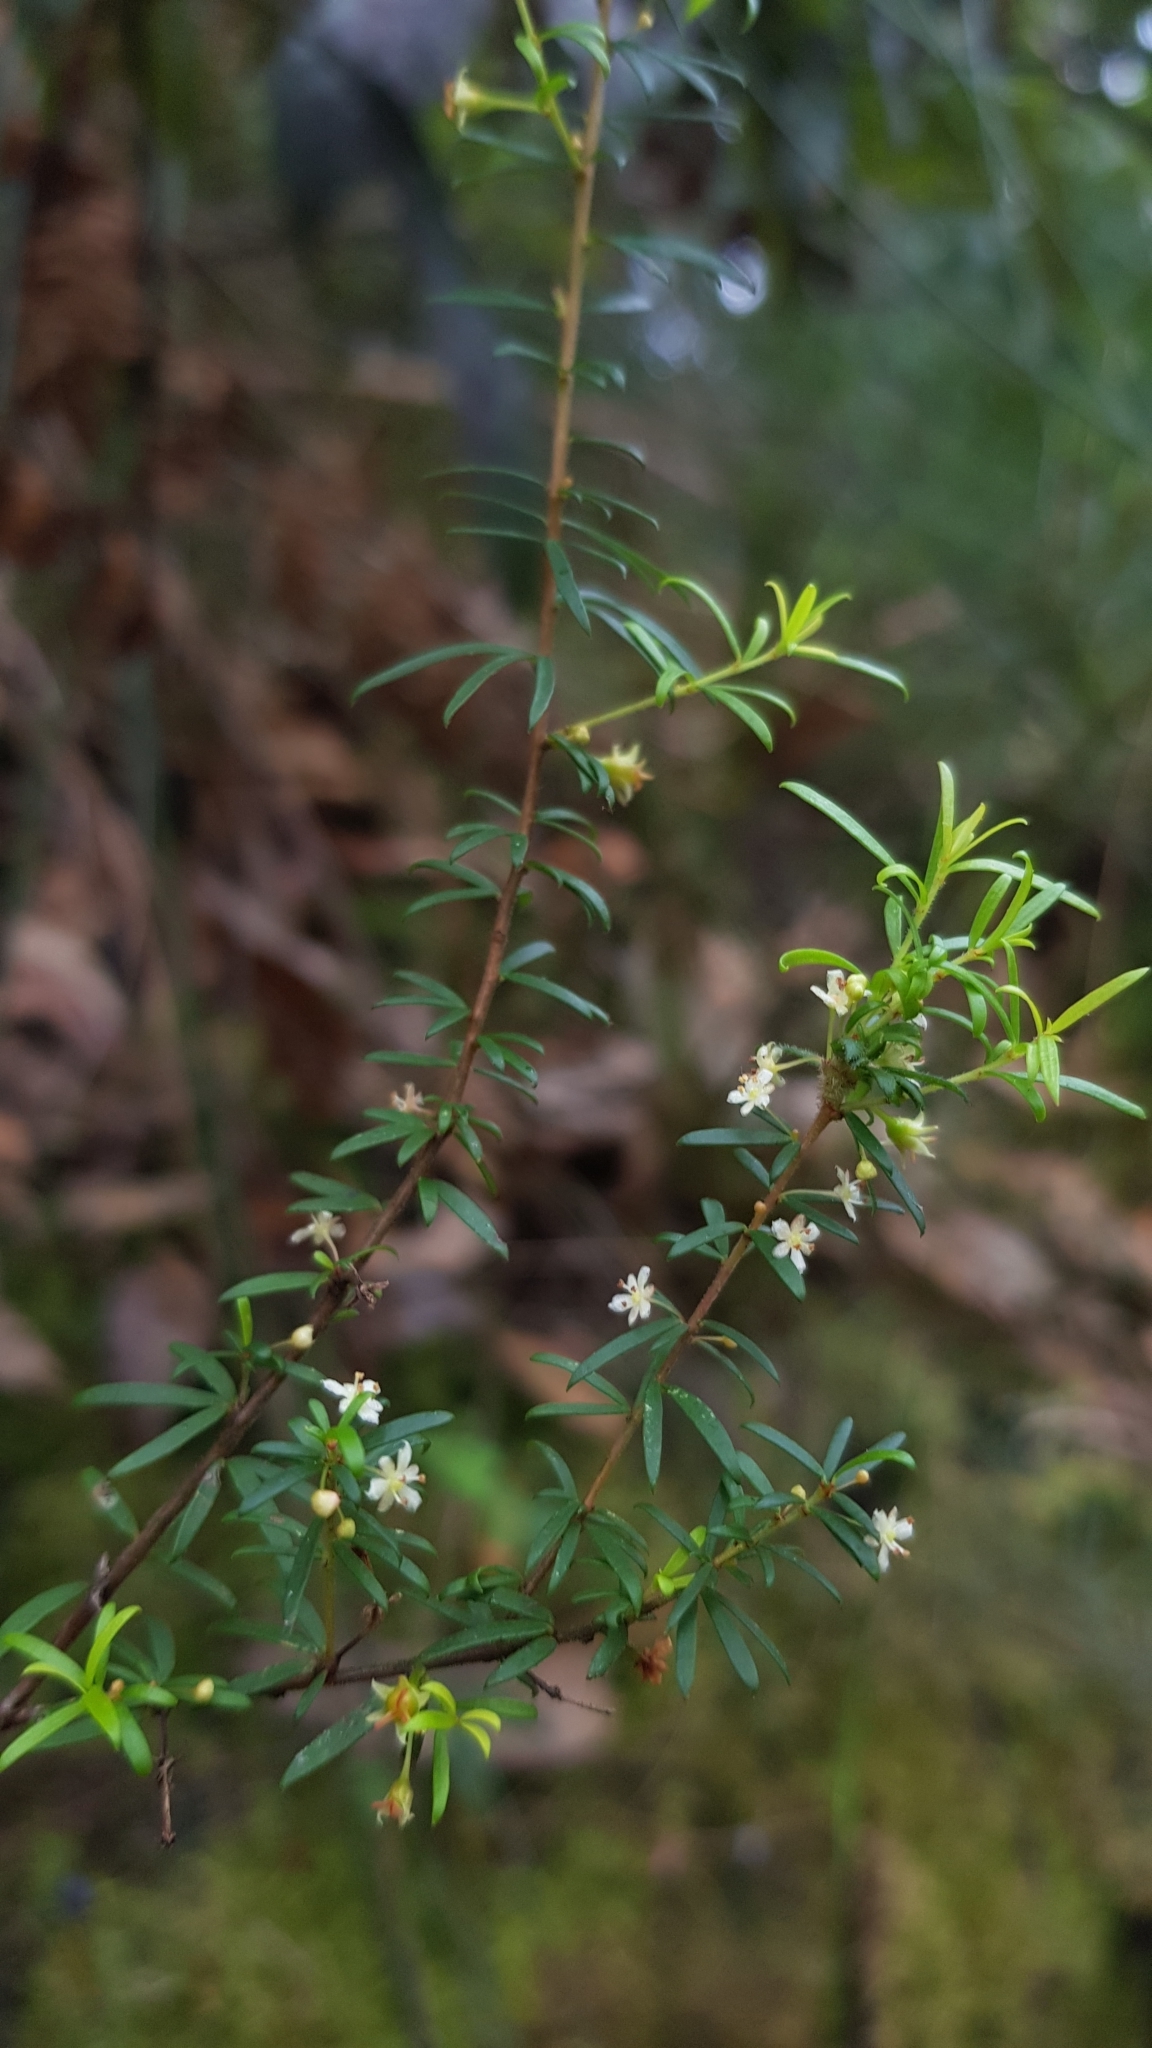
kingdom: Plantae
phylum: Tracheophyta
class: Magnoliopsida
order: Malpighiales
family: Picrodendraceae
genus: Micrantheum
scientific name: Micrantheum hexandrum
